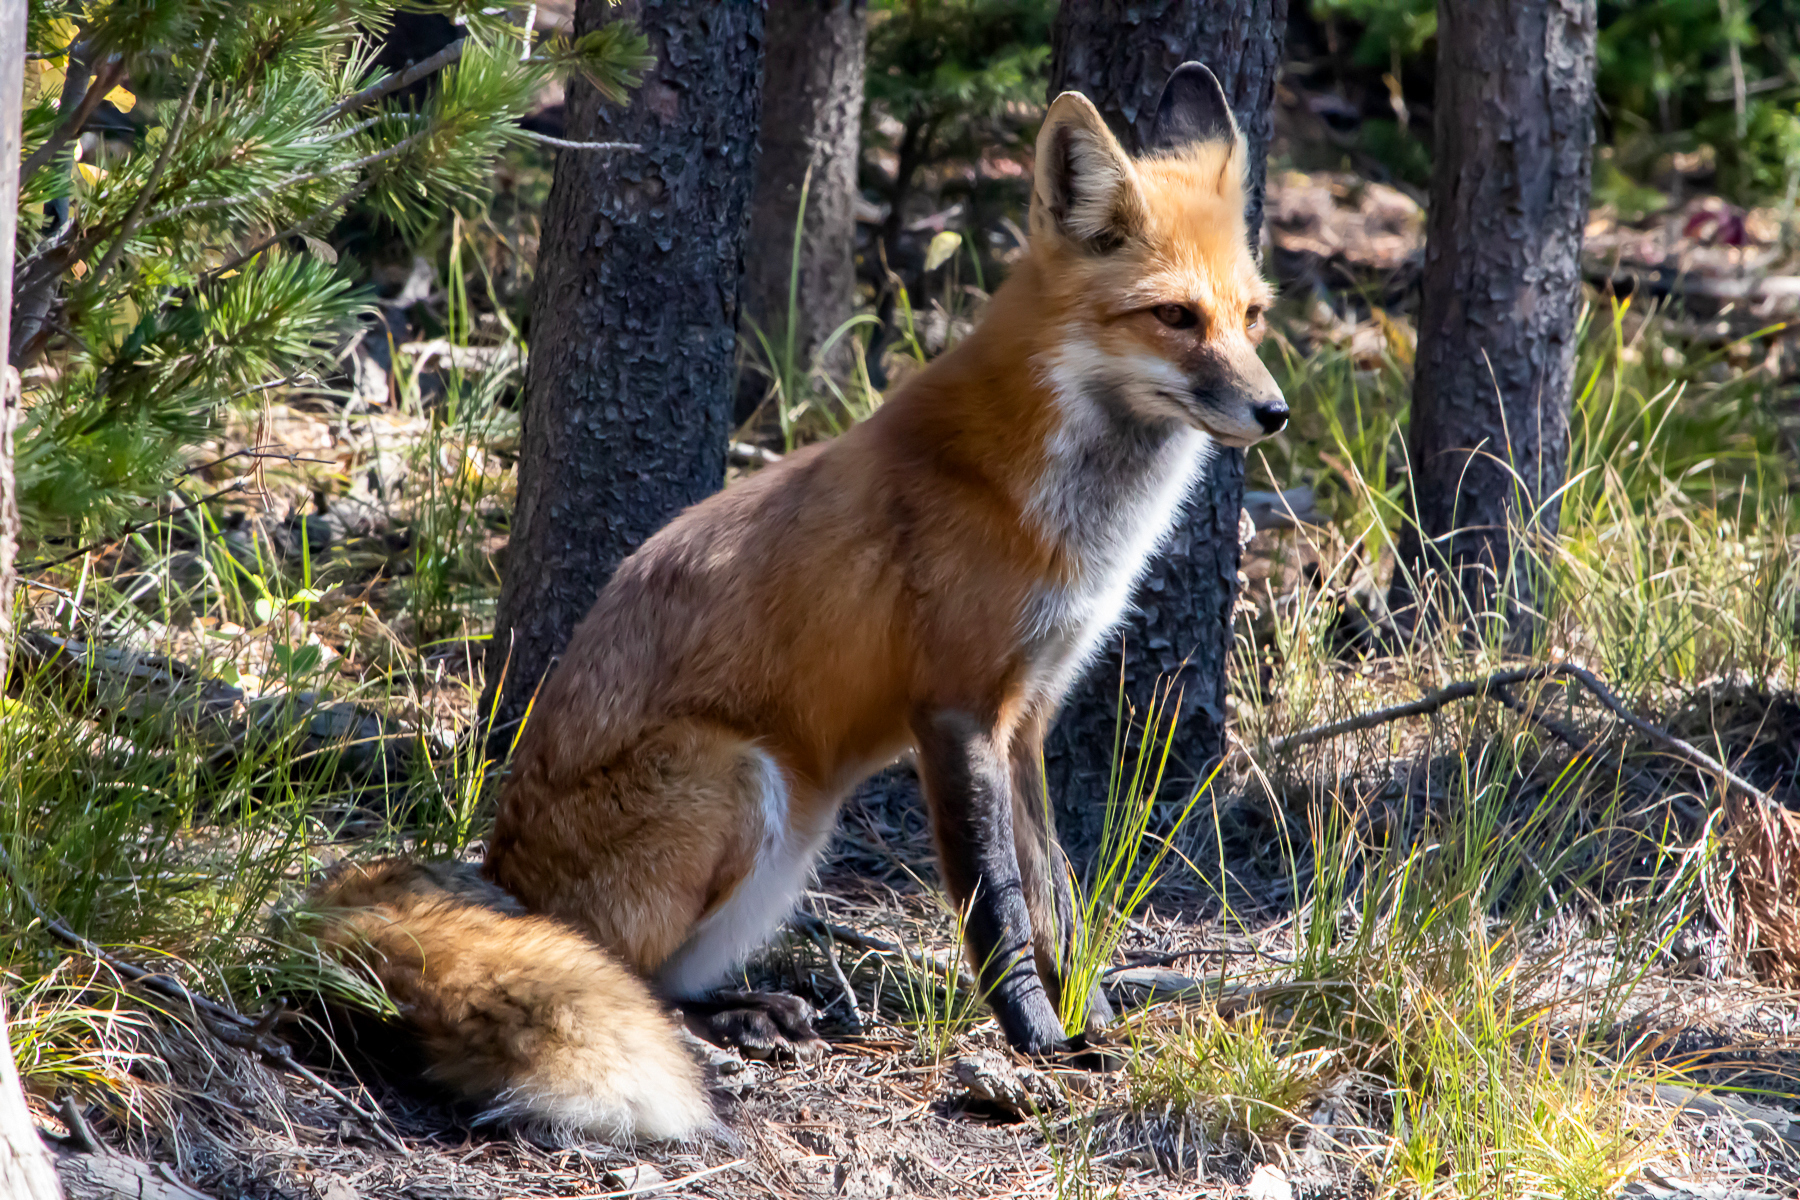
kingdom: Animalia
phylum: Chordata
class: Mammalia
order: Carnivora
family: Canidae
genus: Vulpes
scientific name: Vulpes vulpes
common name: Red fox
